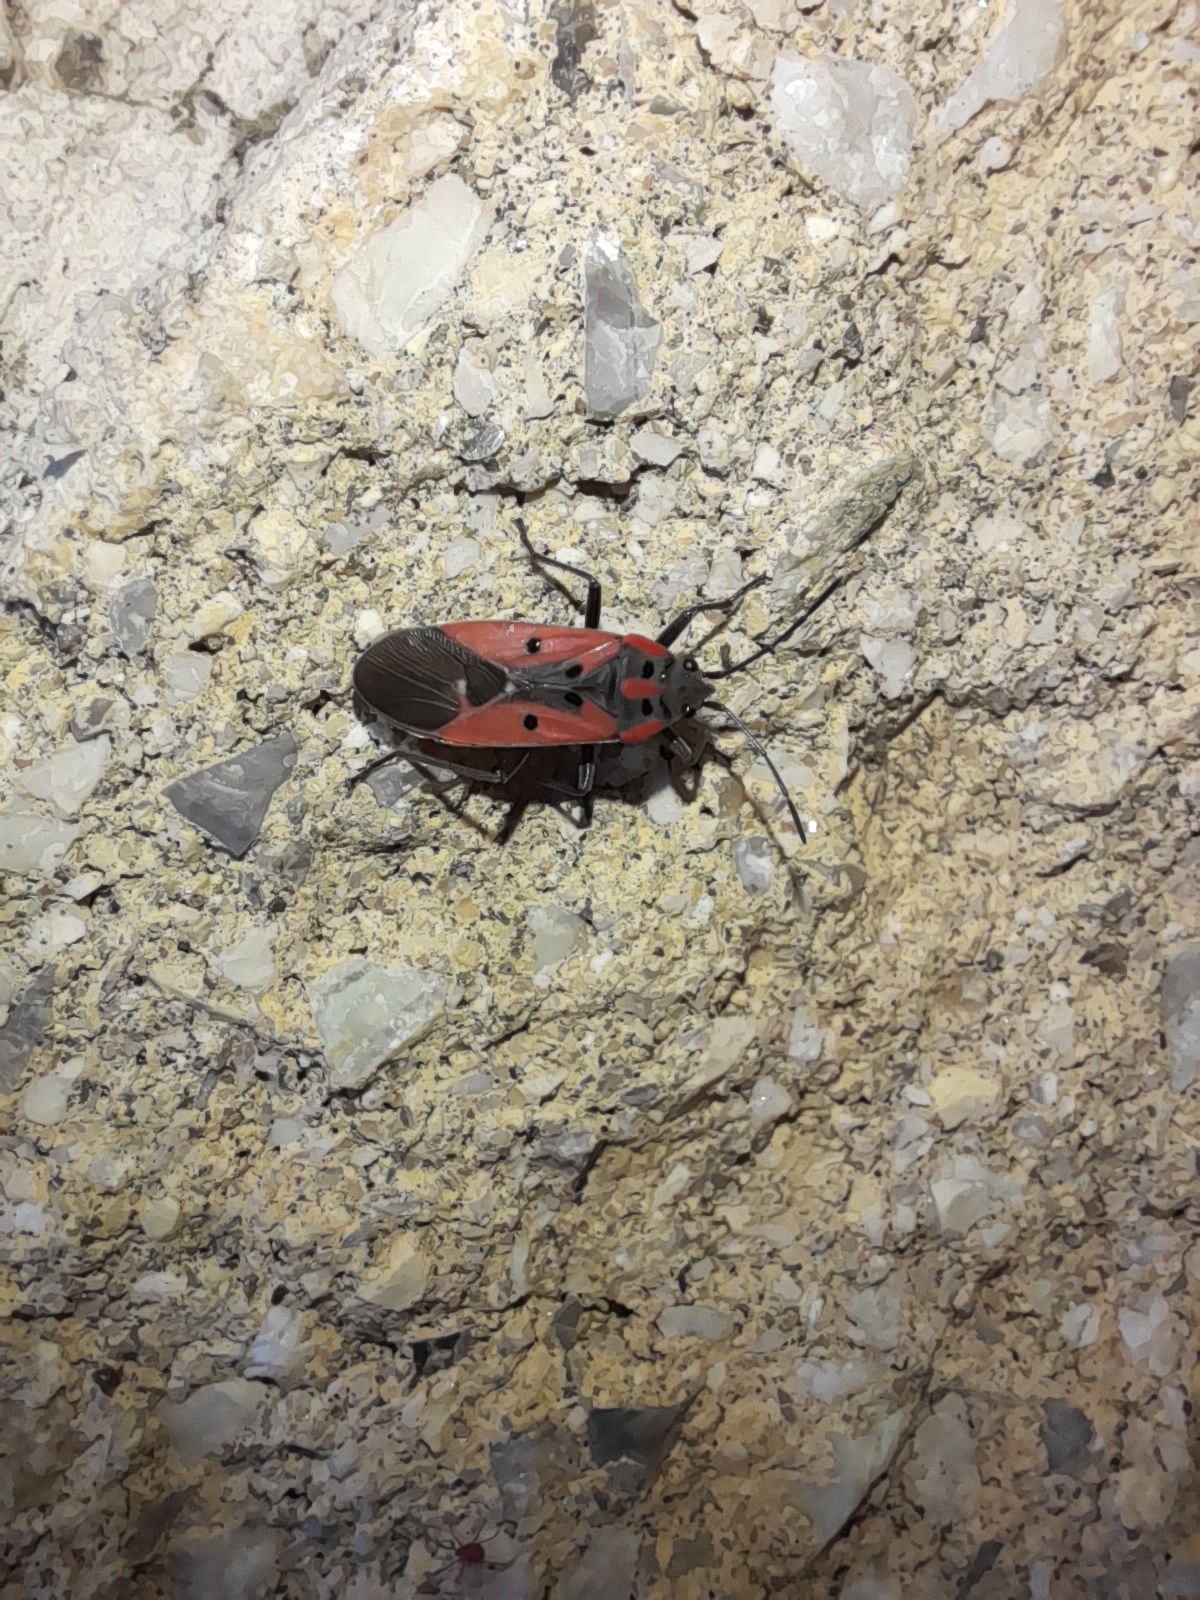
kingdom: Animalia
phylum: Arthropoda
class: Insecta
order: Hemiptera
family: Lygaeidae
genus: Lygaeus
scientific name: Lygaeus creticus
